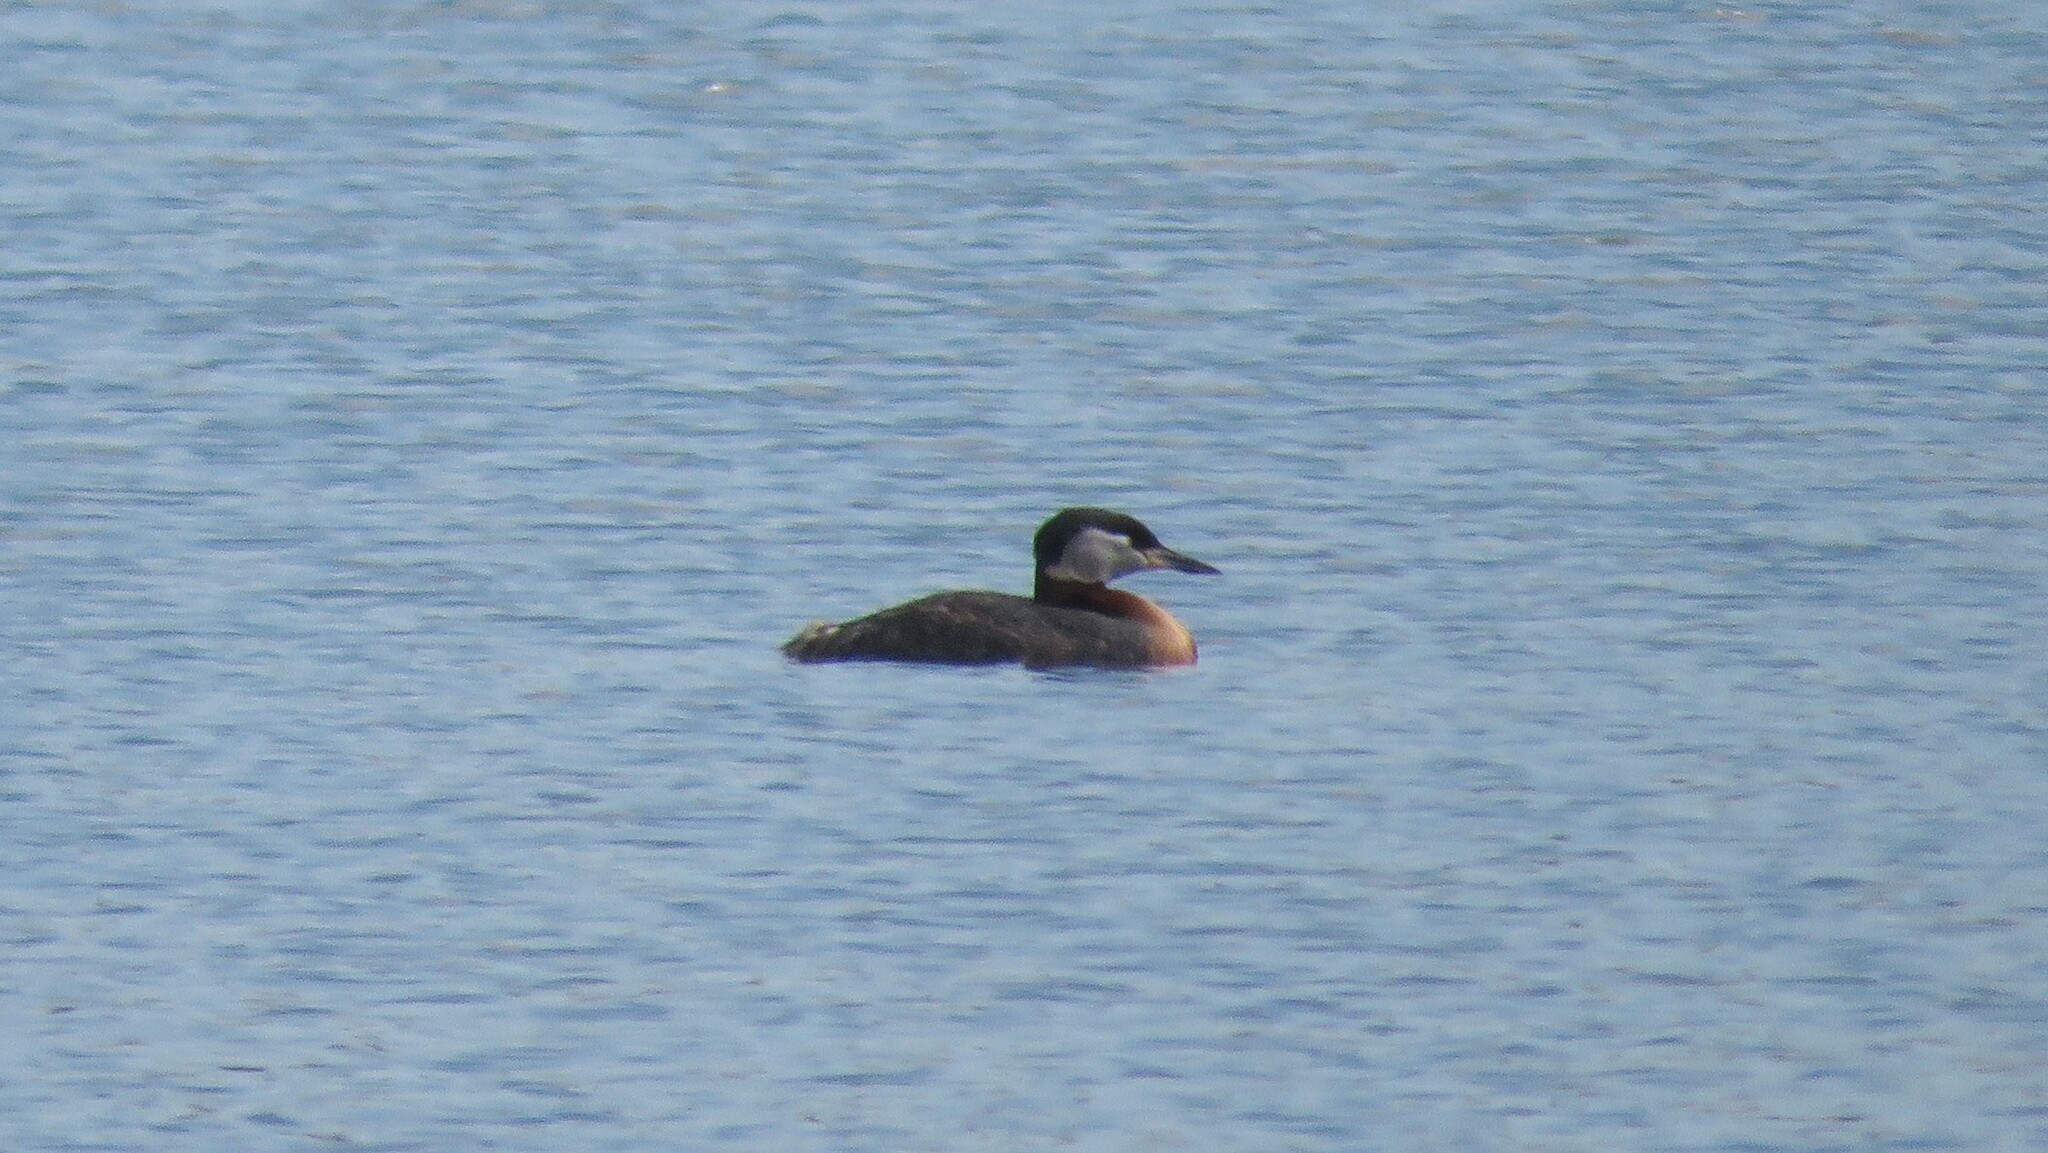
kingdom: Animalia
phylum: Chordata
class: Aves
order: Podicipediformes
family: Podicipedidae
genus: Podiceps
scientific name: Podiceps grisegena
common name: Red-necked grebe
